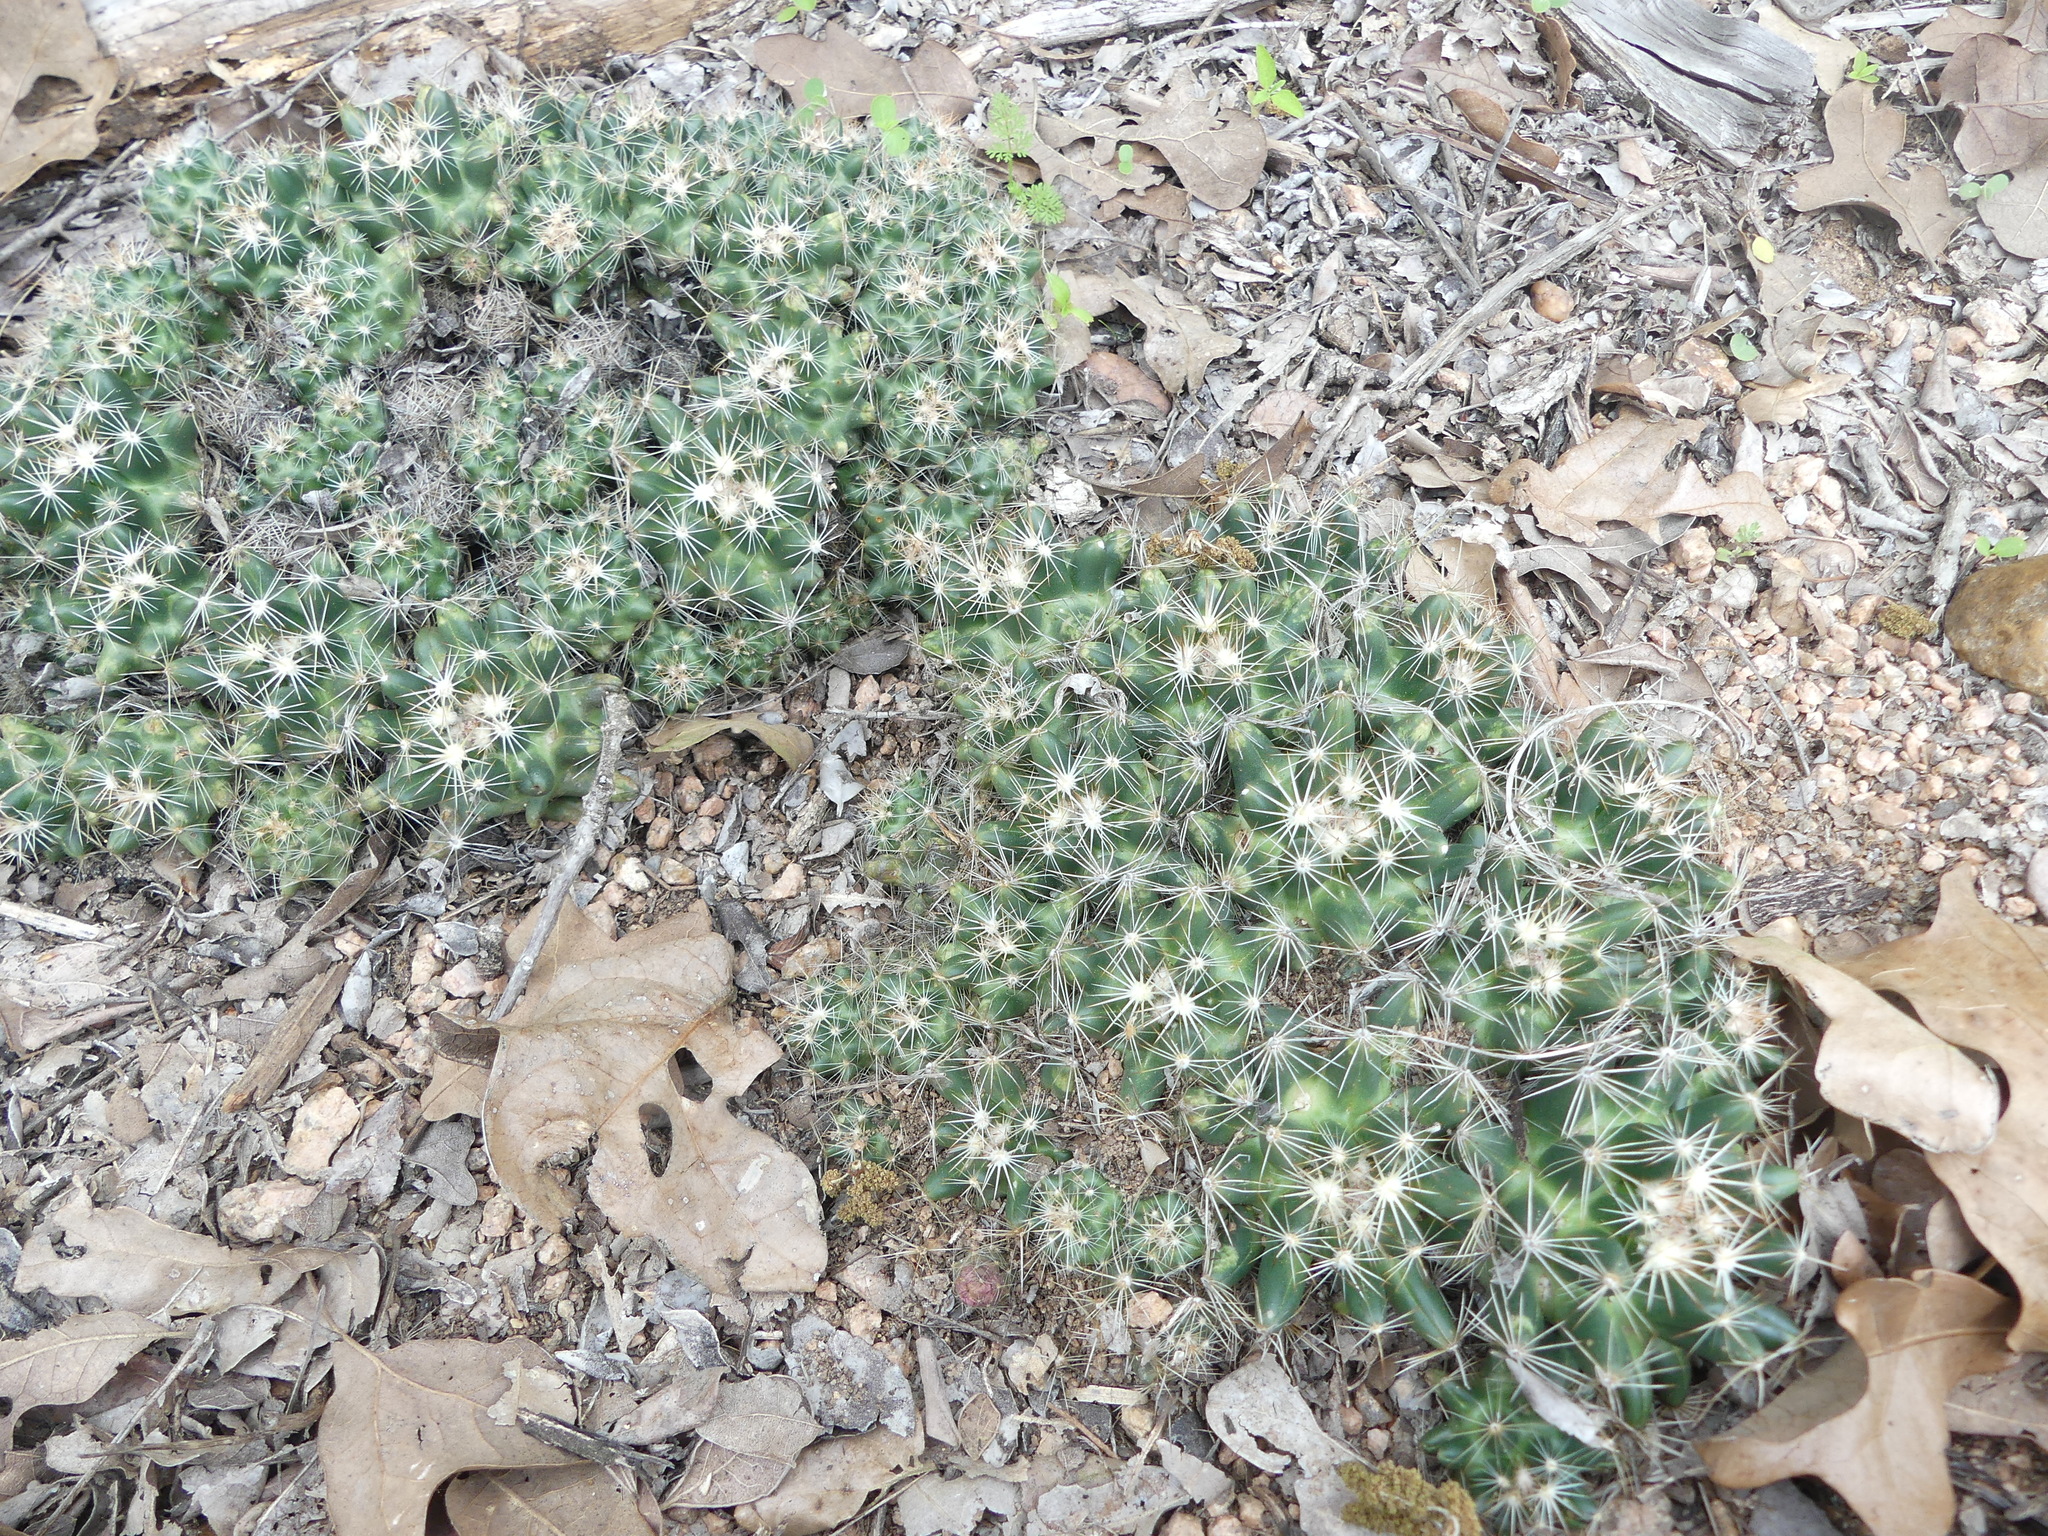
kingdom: Plantae
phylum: Tracheophyta
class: Magnoliopsida
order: Caryophyllales
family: Cactaceae
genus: Pelecyphora
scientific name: Pelecyphora missouriensis
